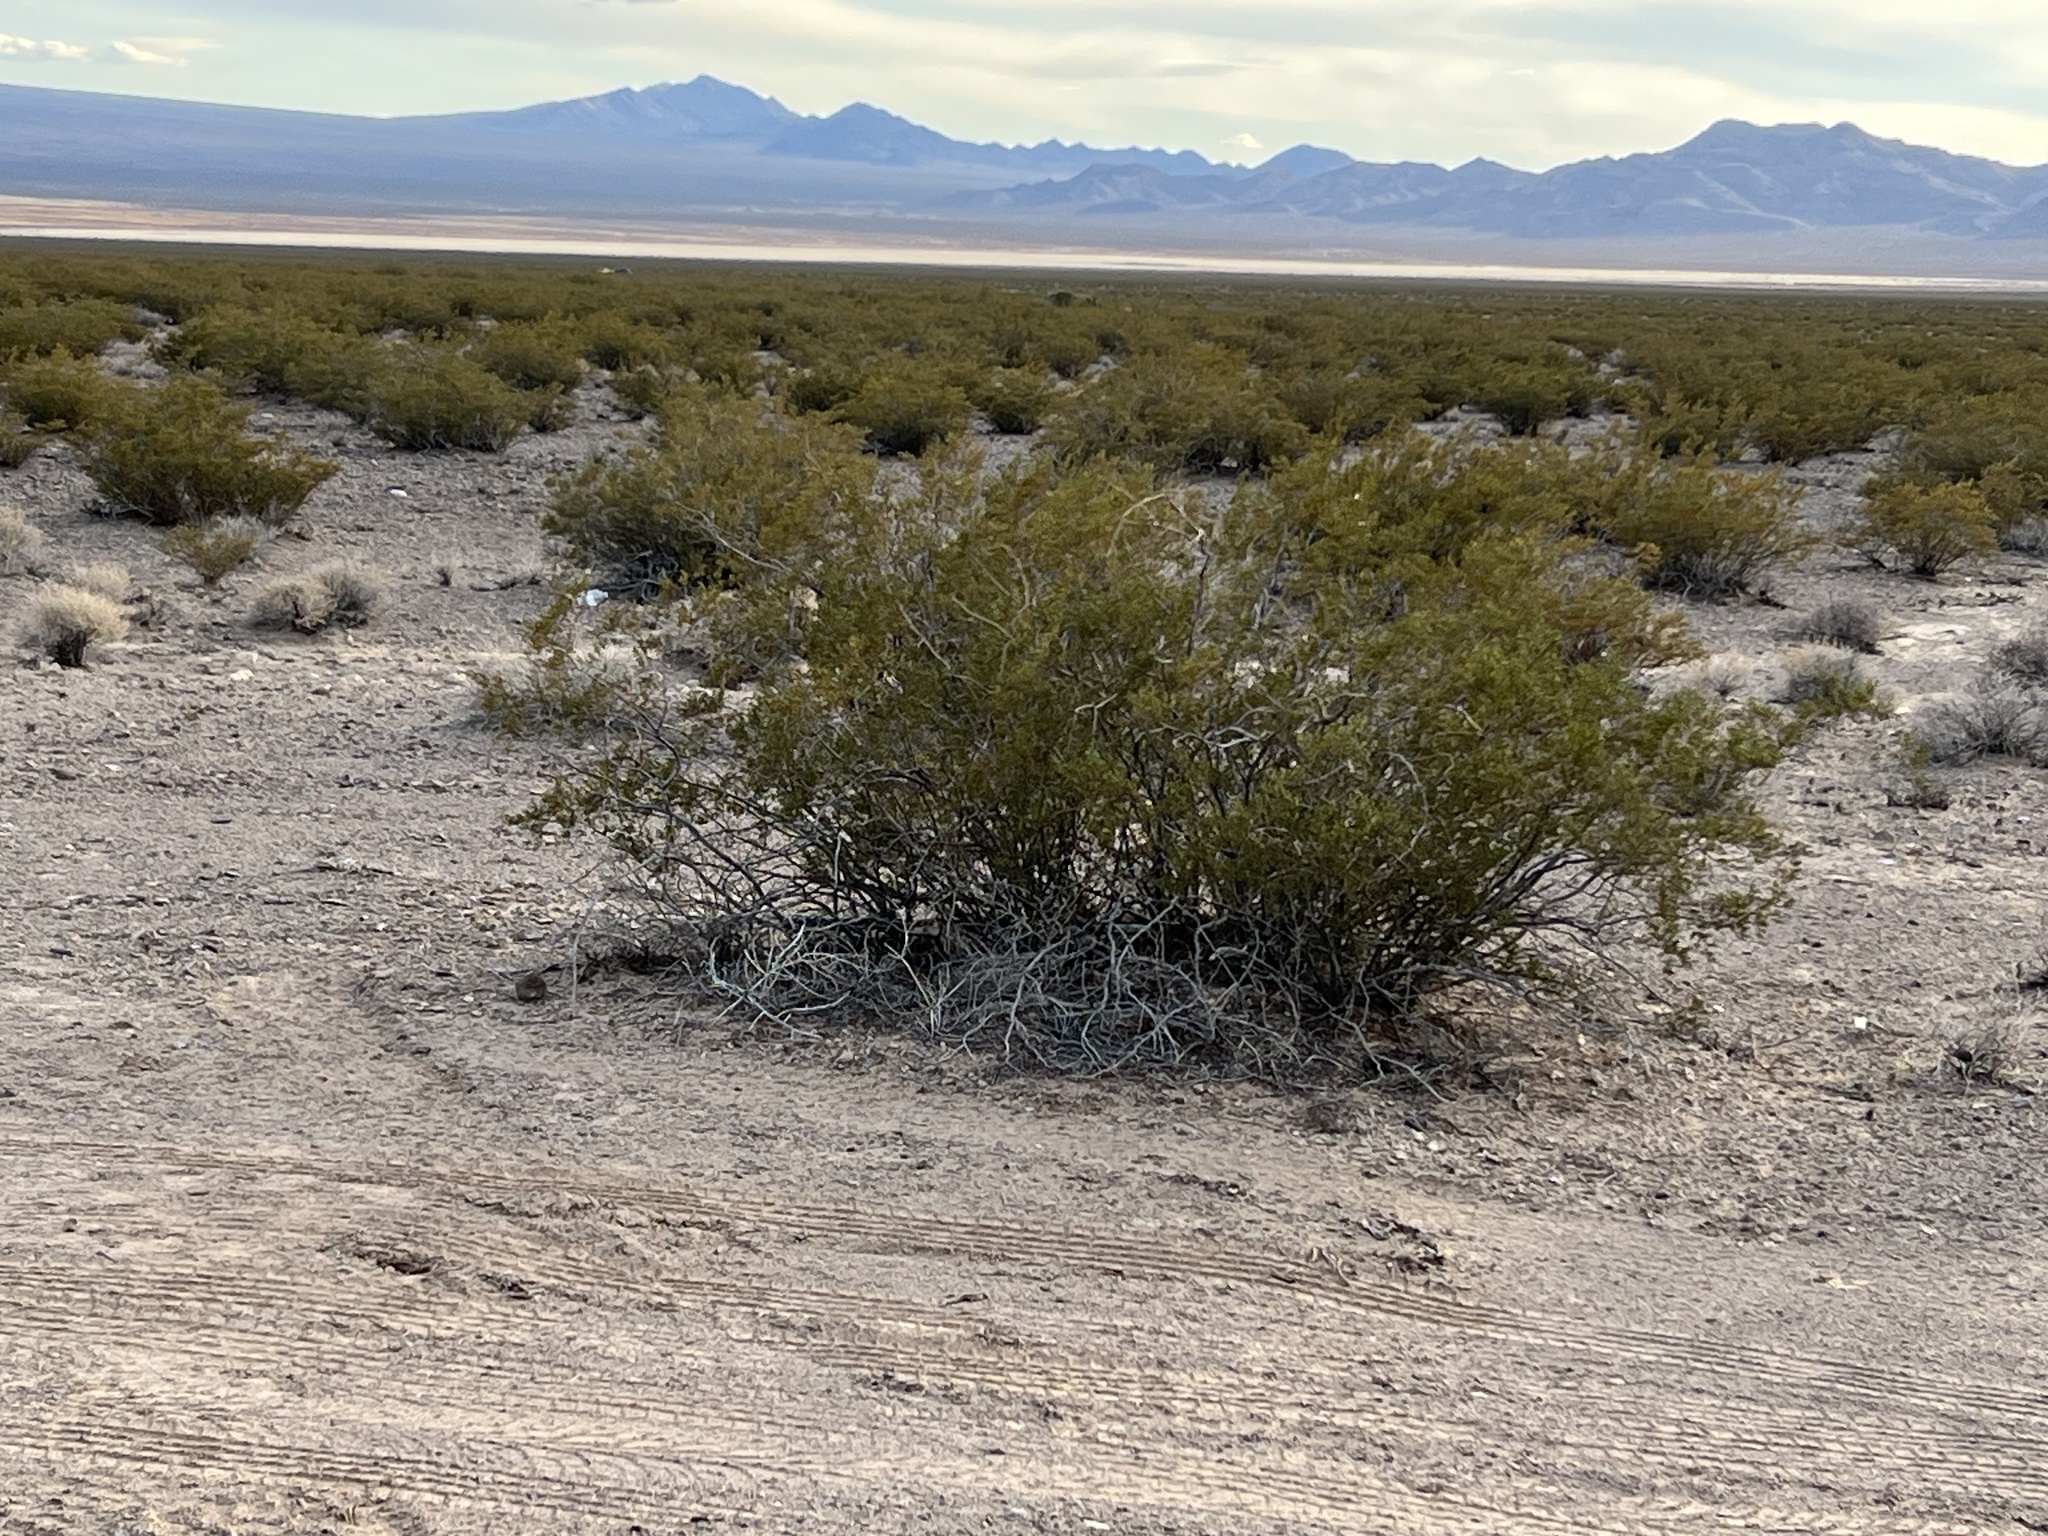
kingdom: Plantae
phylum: Tracheophyta
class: Magnoliopsida
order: Zygophyllales
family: Zygophyllaceae
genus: Larrea
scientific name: Larrea tridentata
